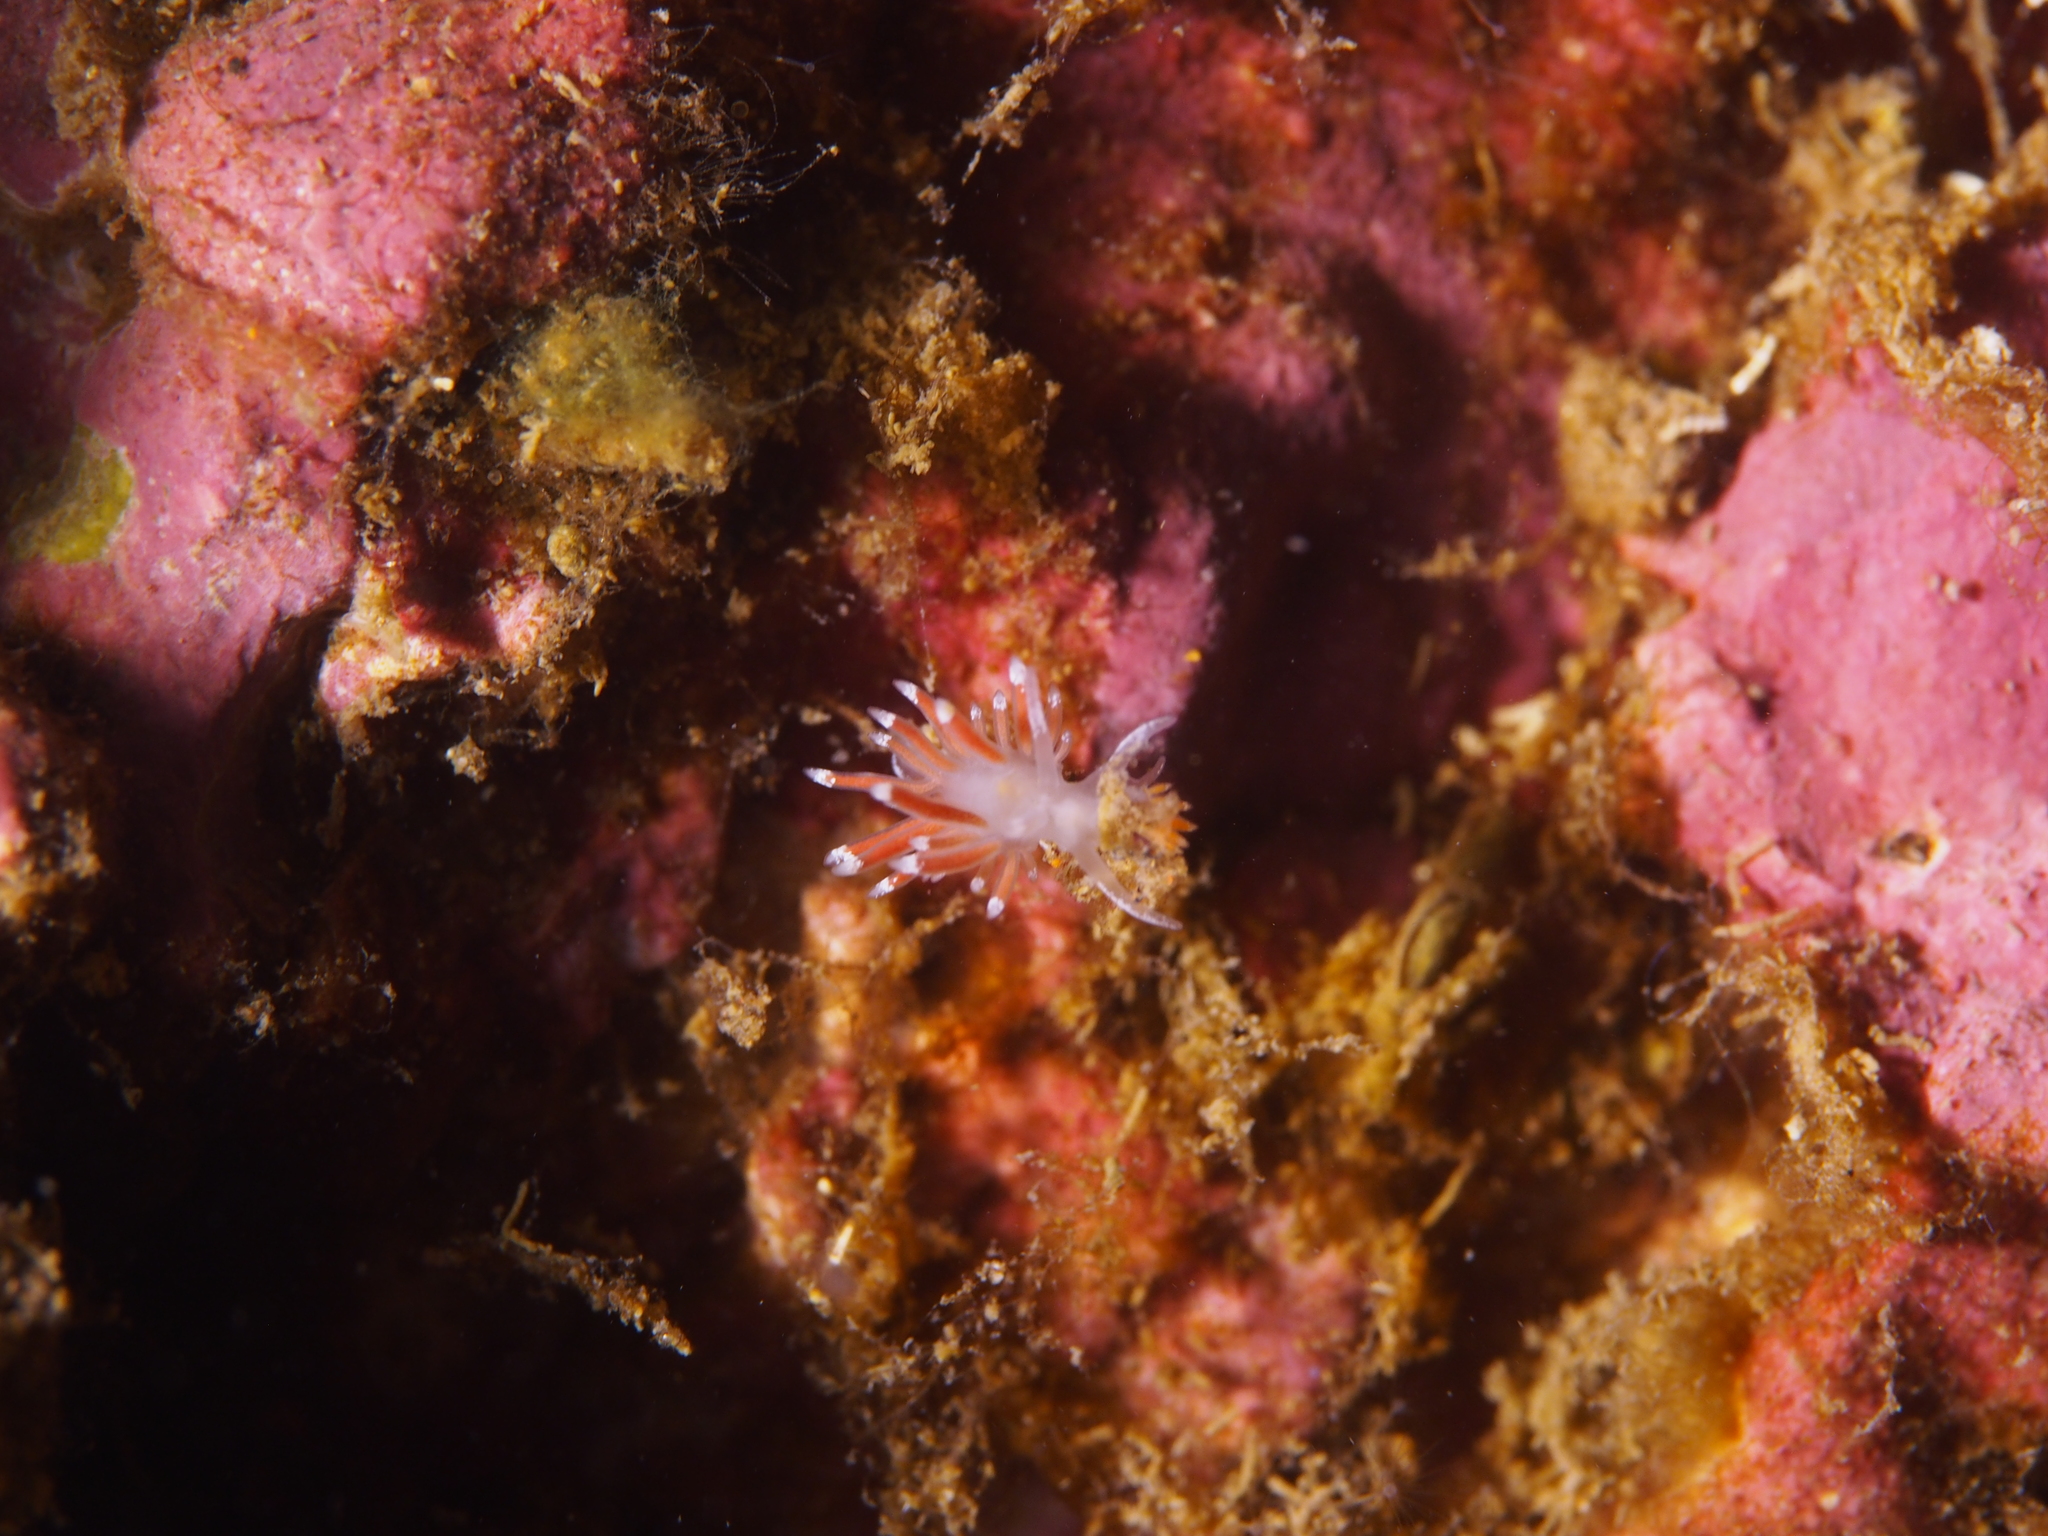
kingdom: Animalia
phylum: Mollusca
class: Gastropoda
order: Nudibranchia
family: Coryphellidae
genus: Coryphella
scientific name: Coryphella gracilis
